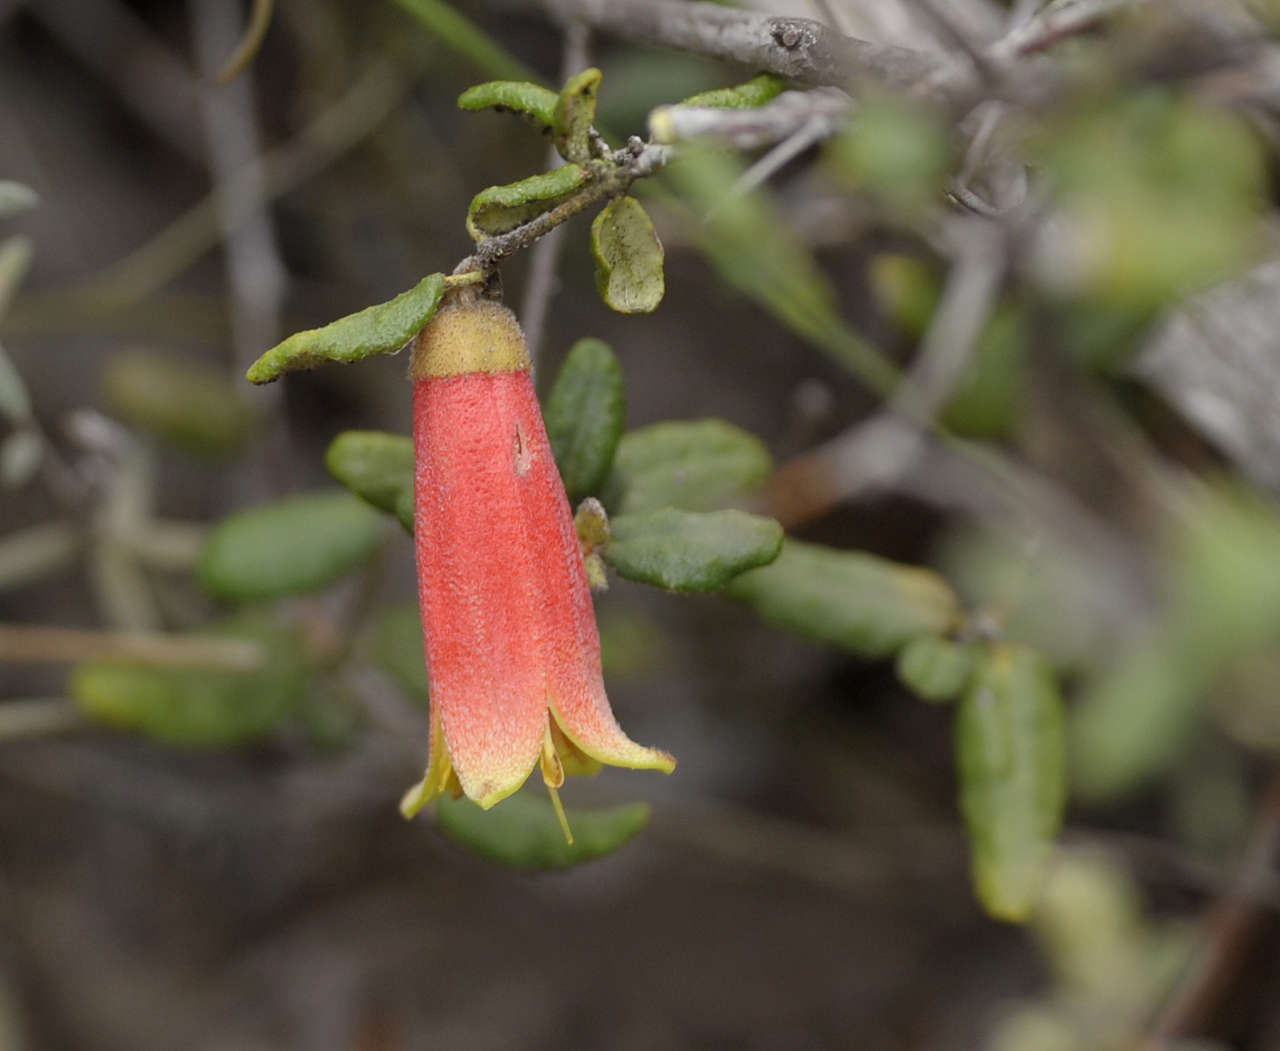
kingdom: Plantae
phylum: Tracheophyta
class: Magnoliopsida
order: Sapindales
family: Rutaceae
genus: Correa
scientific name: Correa reflexa
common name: Common correa
